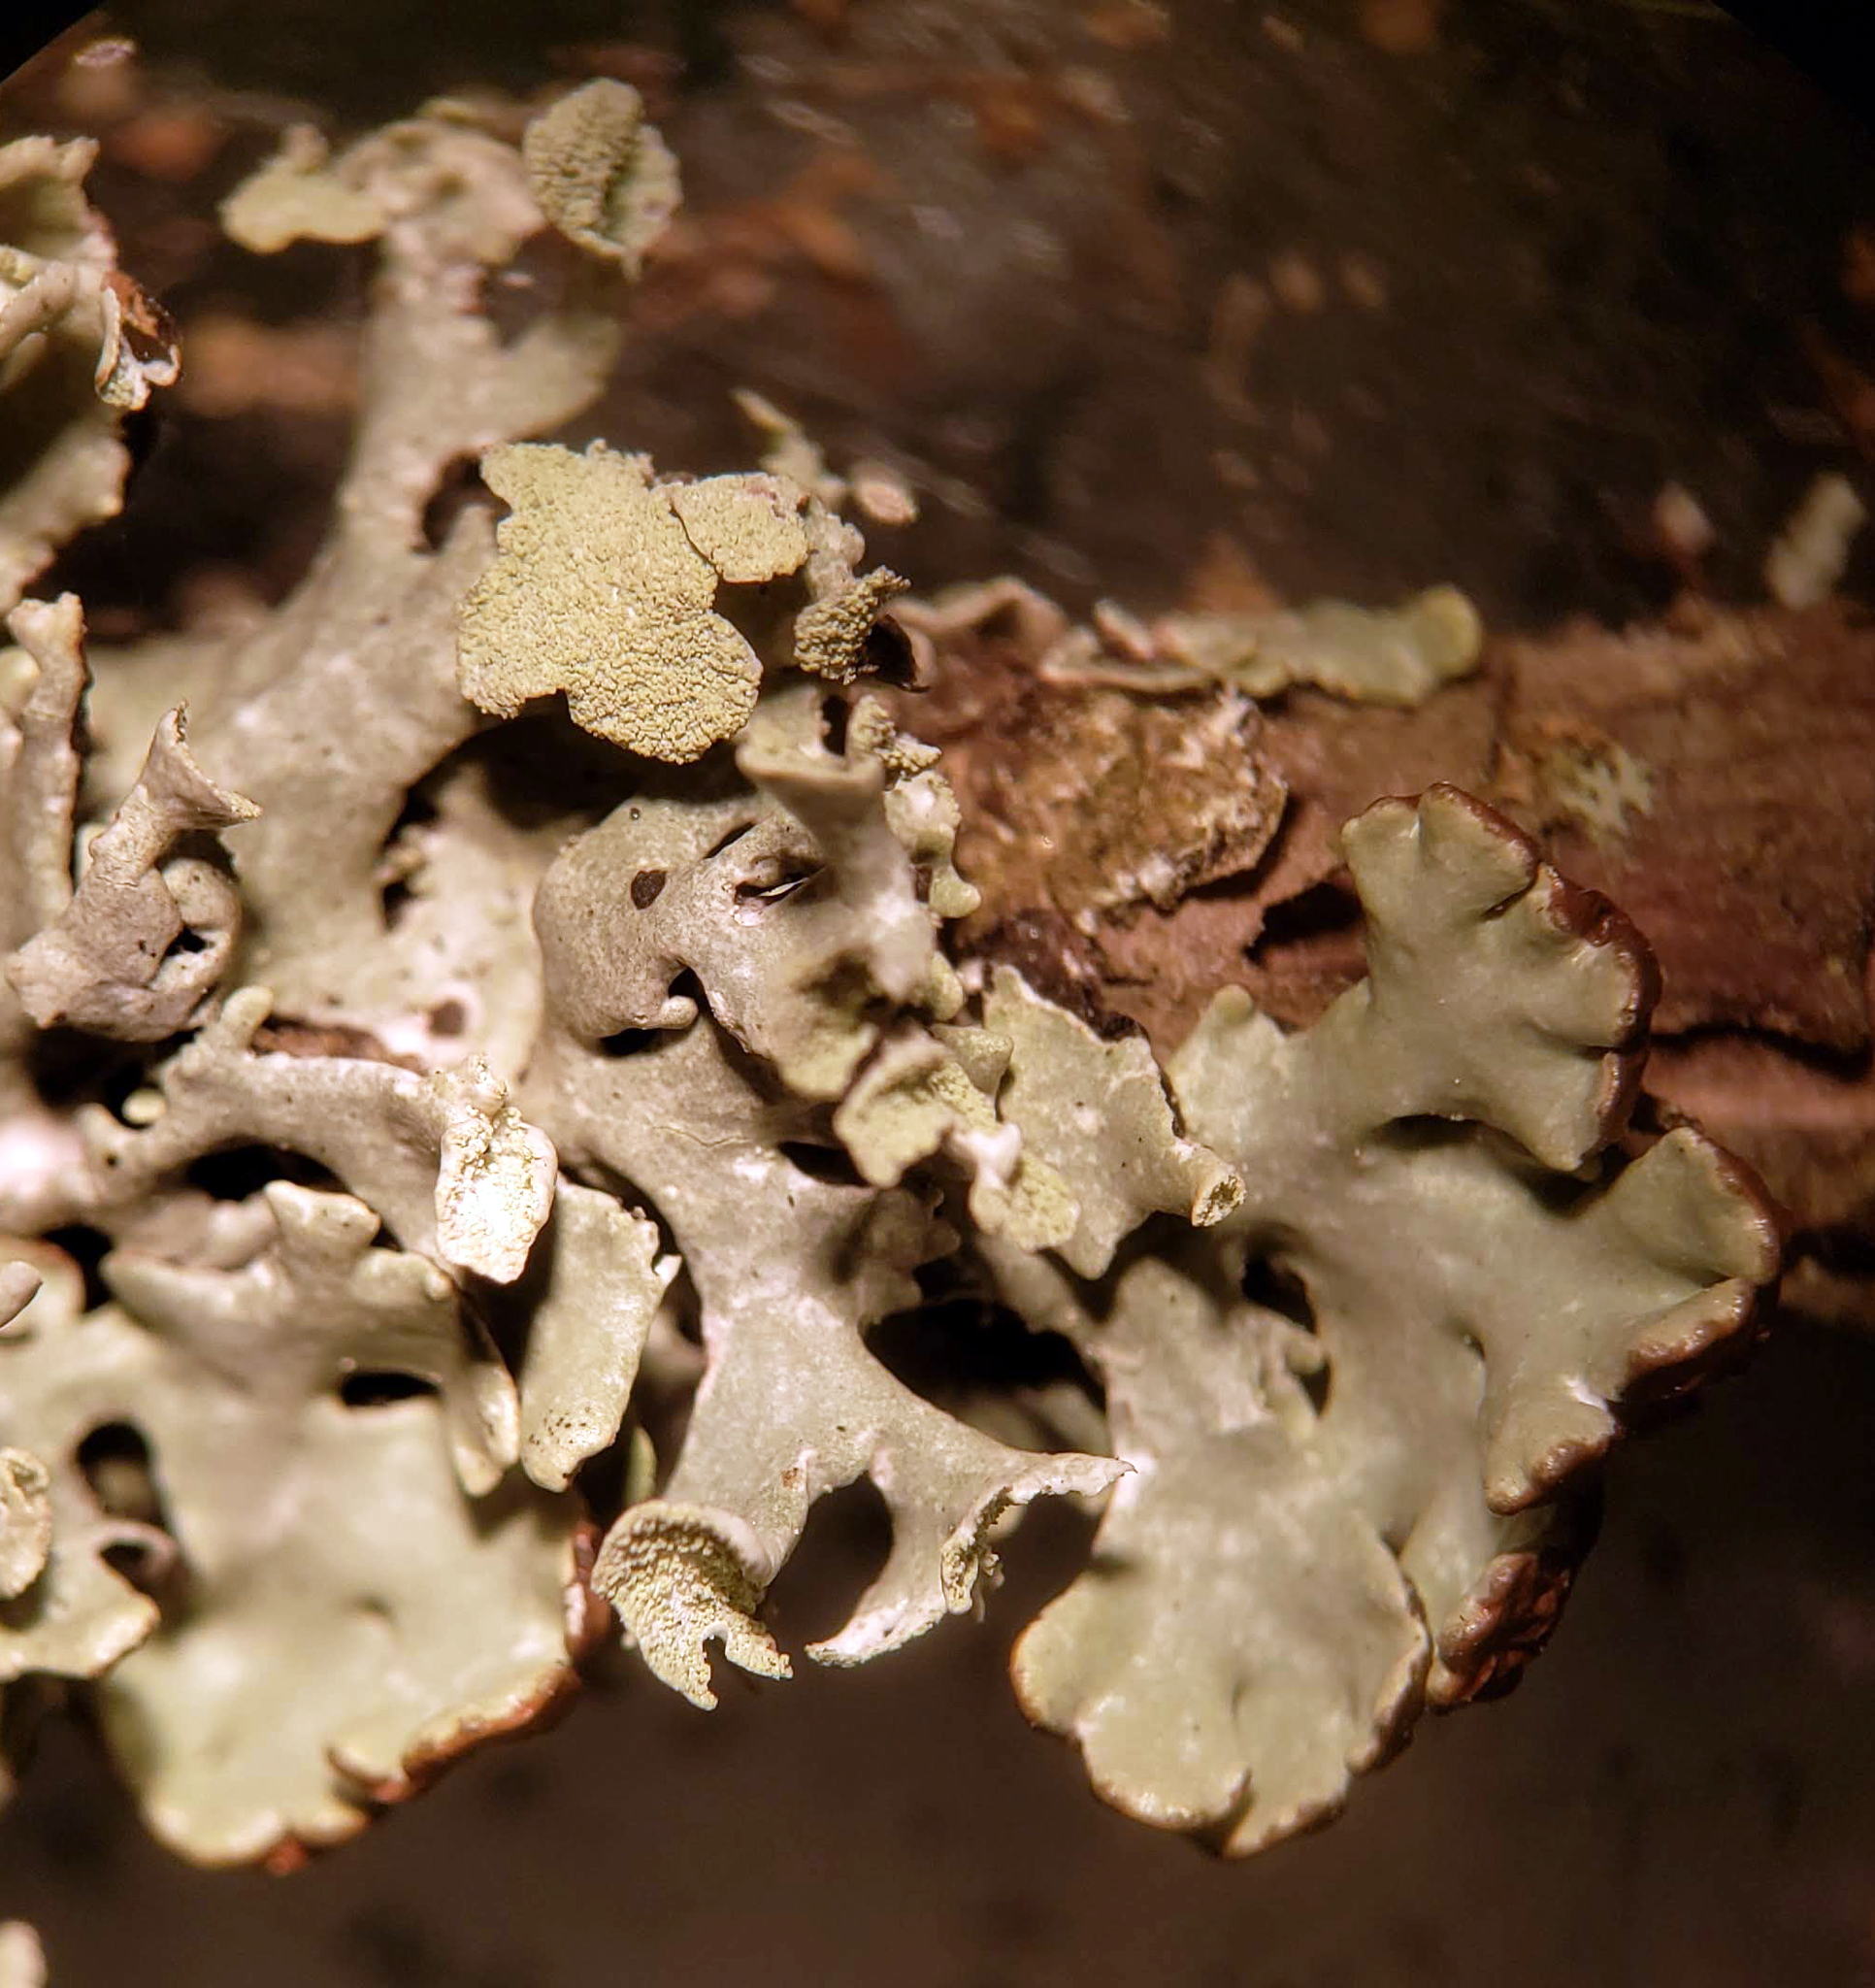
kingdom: Fungi
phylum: Ascomycota
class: Lecanoromycetes
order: Lecanorales
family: Parmeliaceae
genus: Hypogymnia
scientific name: Hypogymnia physodes
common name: Dark crottle
